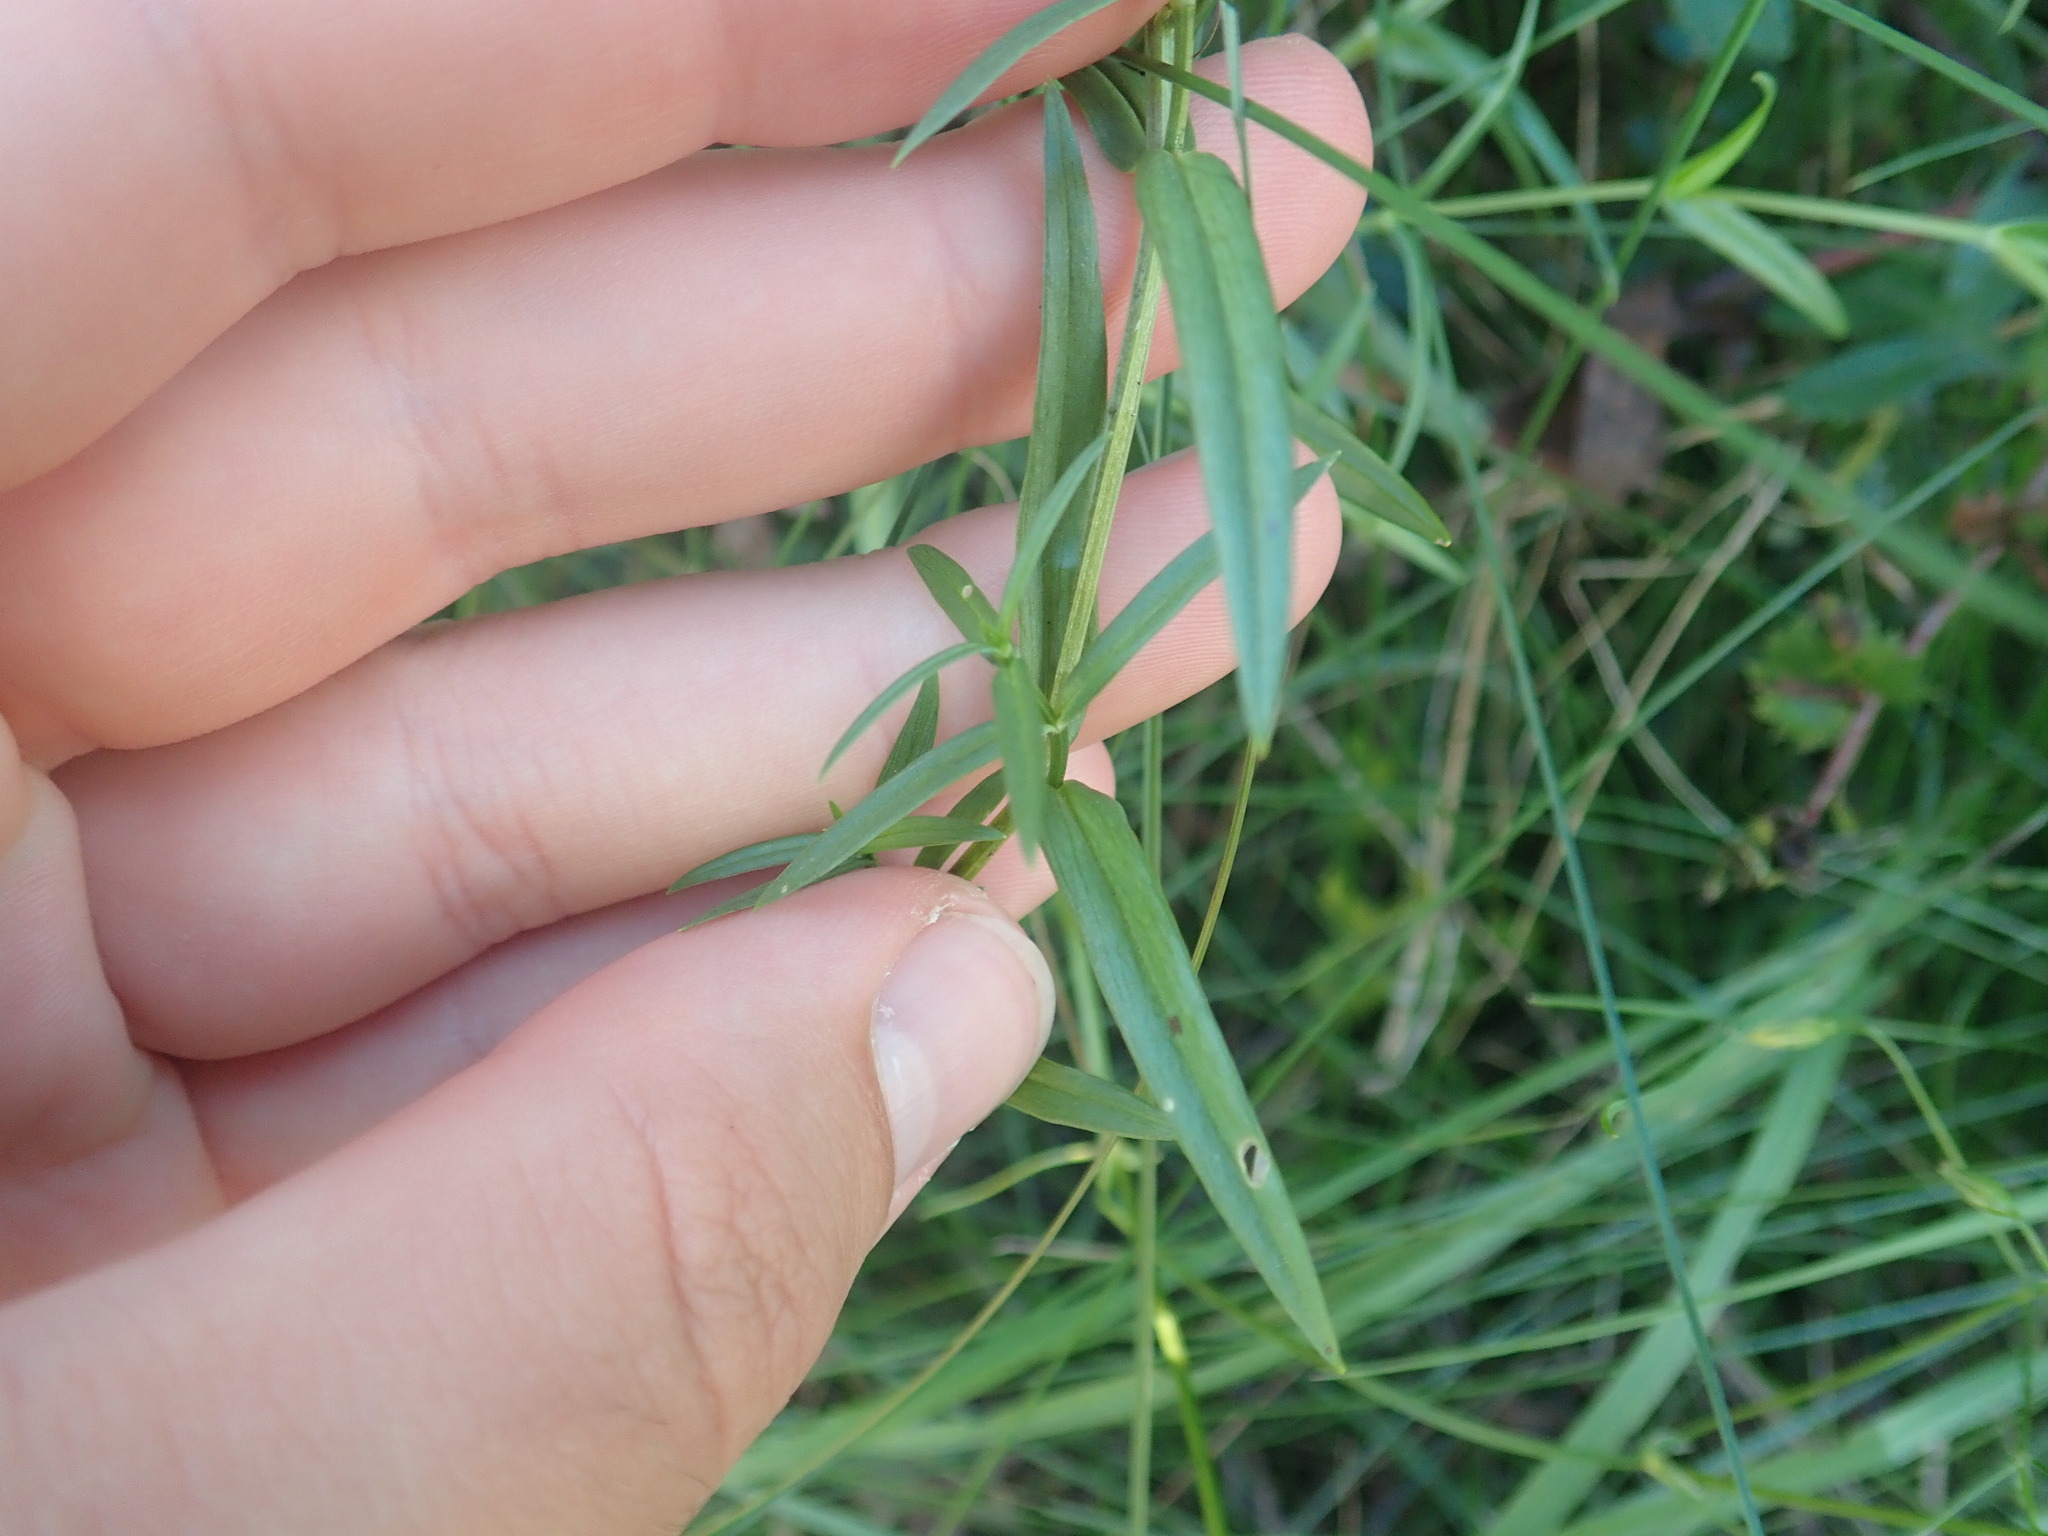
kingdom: Plantae
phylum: Tracheophyta
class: Magnoliopsida
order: Caryophyllales
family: Caryophyllaceae
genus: Stellaria
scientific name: Stellaria graminea
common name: Grass-like starwort
